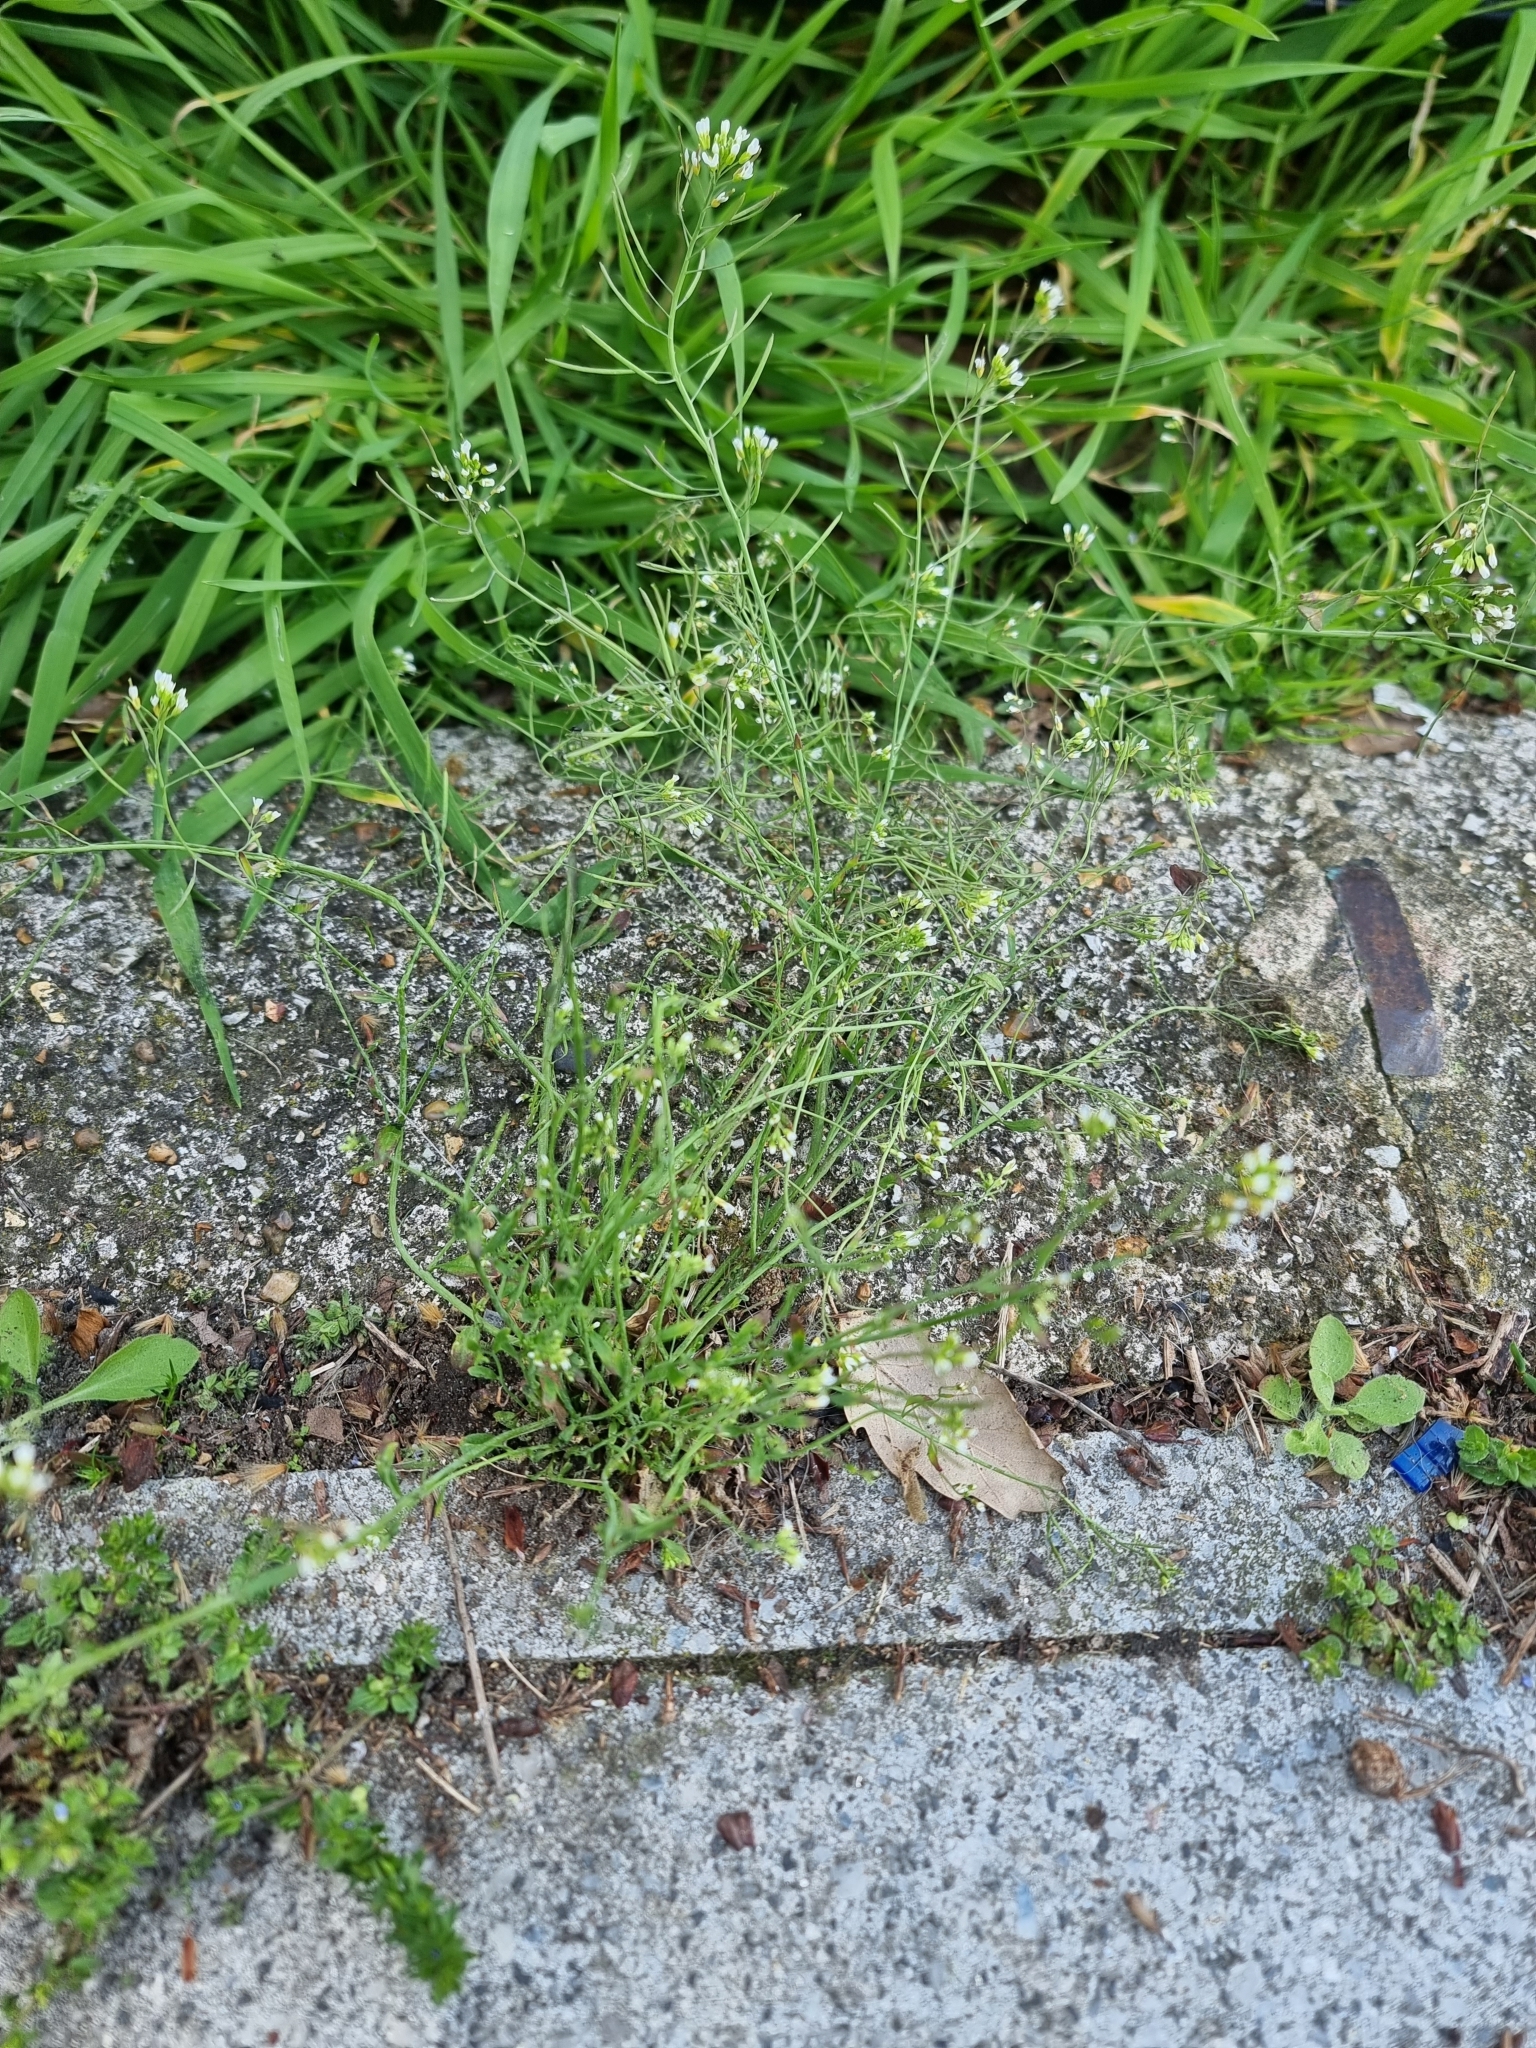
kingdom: Plantae
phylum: Tracheophyta
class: Magnoliopsida
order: Brassicales
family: Brassicaceae
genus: Arabidopsis
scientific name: Arabidopsis thaliana
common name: Thale cress
